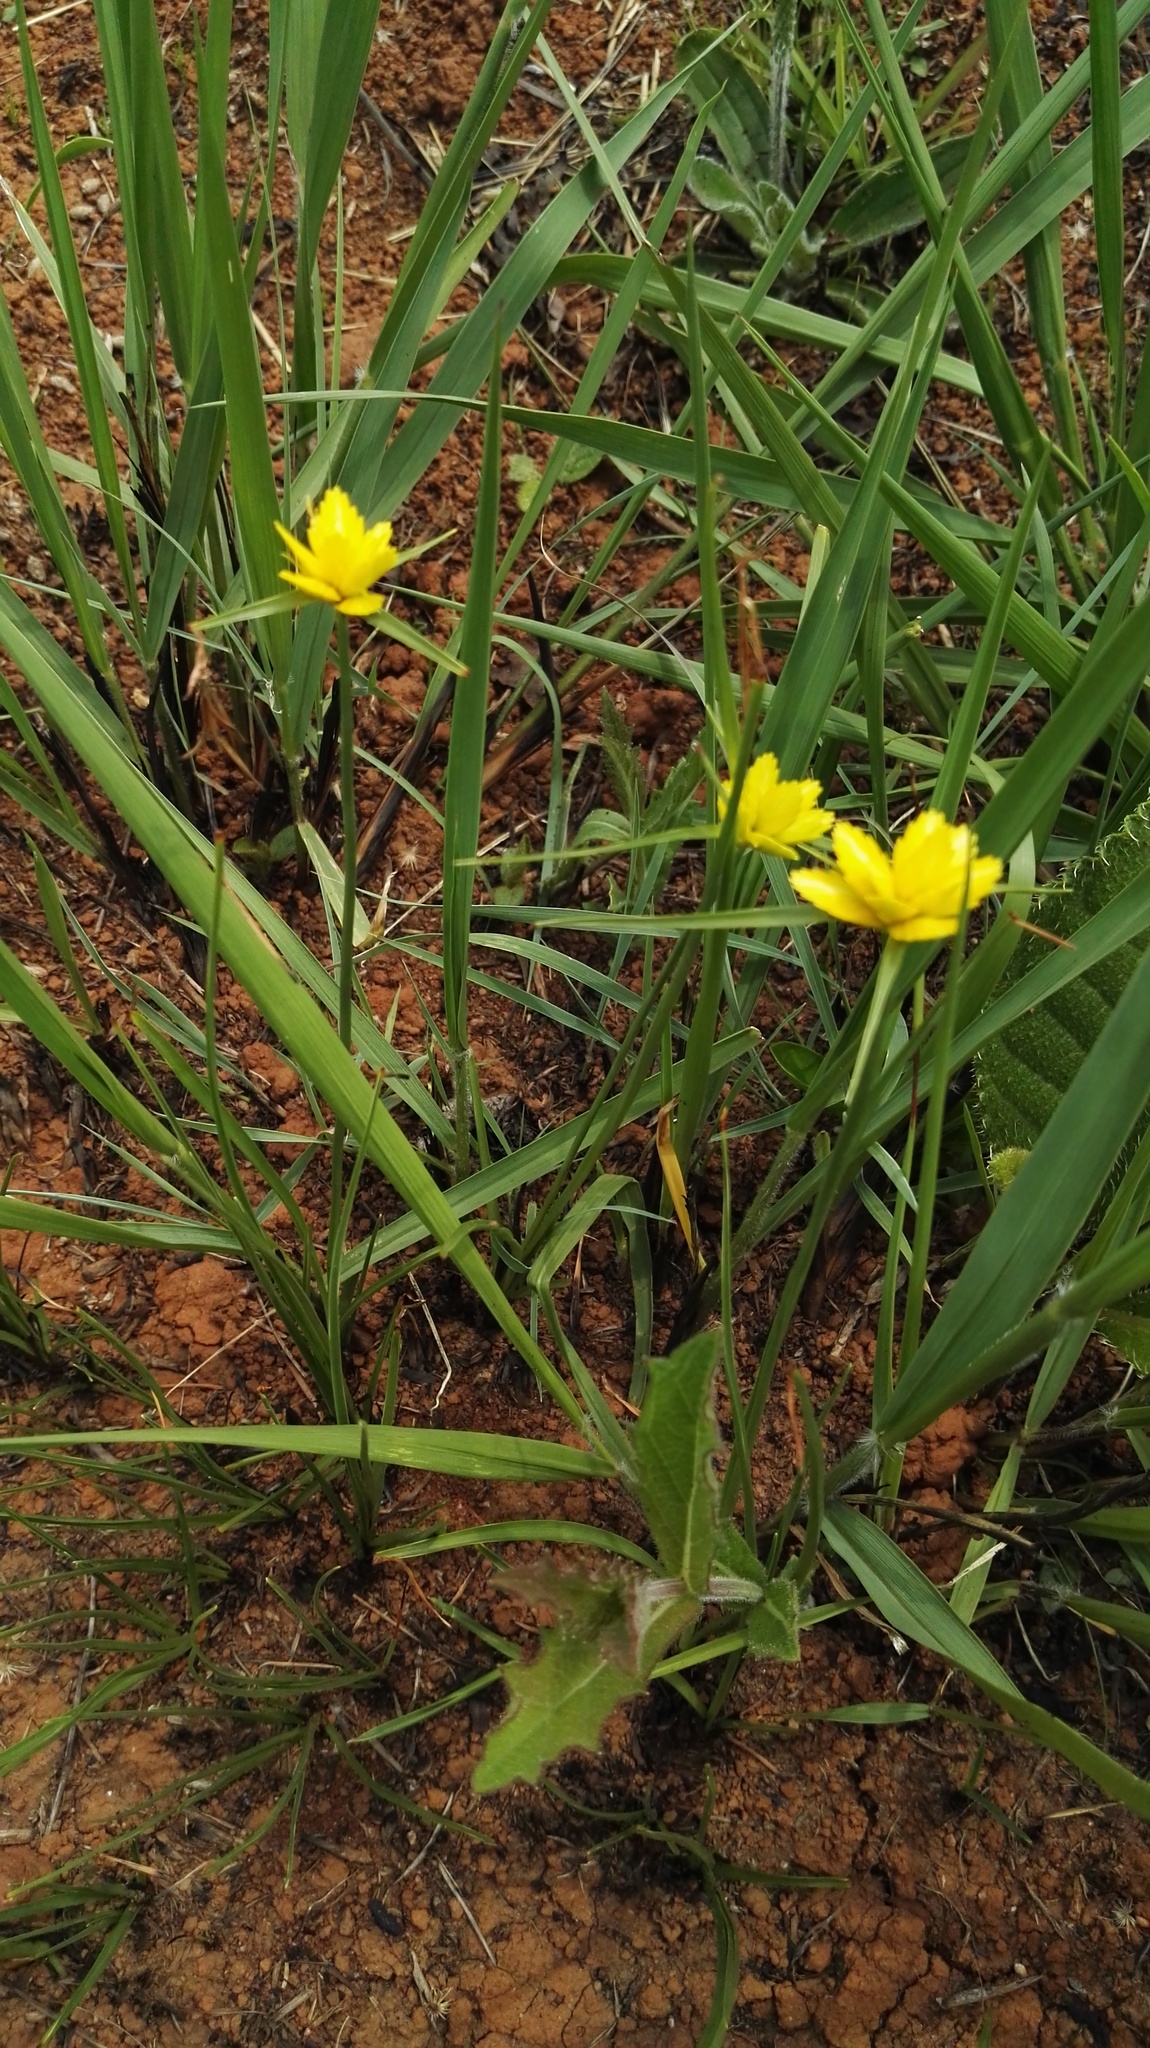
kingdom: Plantae
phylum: Tracheophyta
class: Liliopsida
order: Poales
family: Cyperaceae
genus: Cyperus
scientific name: Cyperus sphaerocephalus
